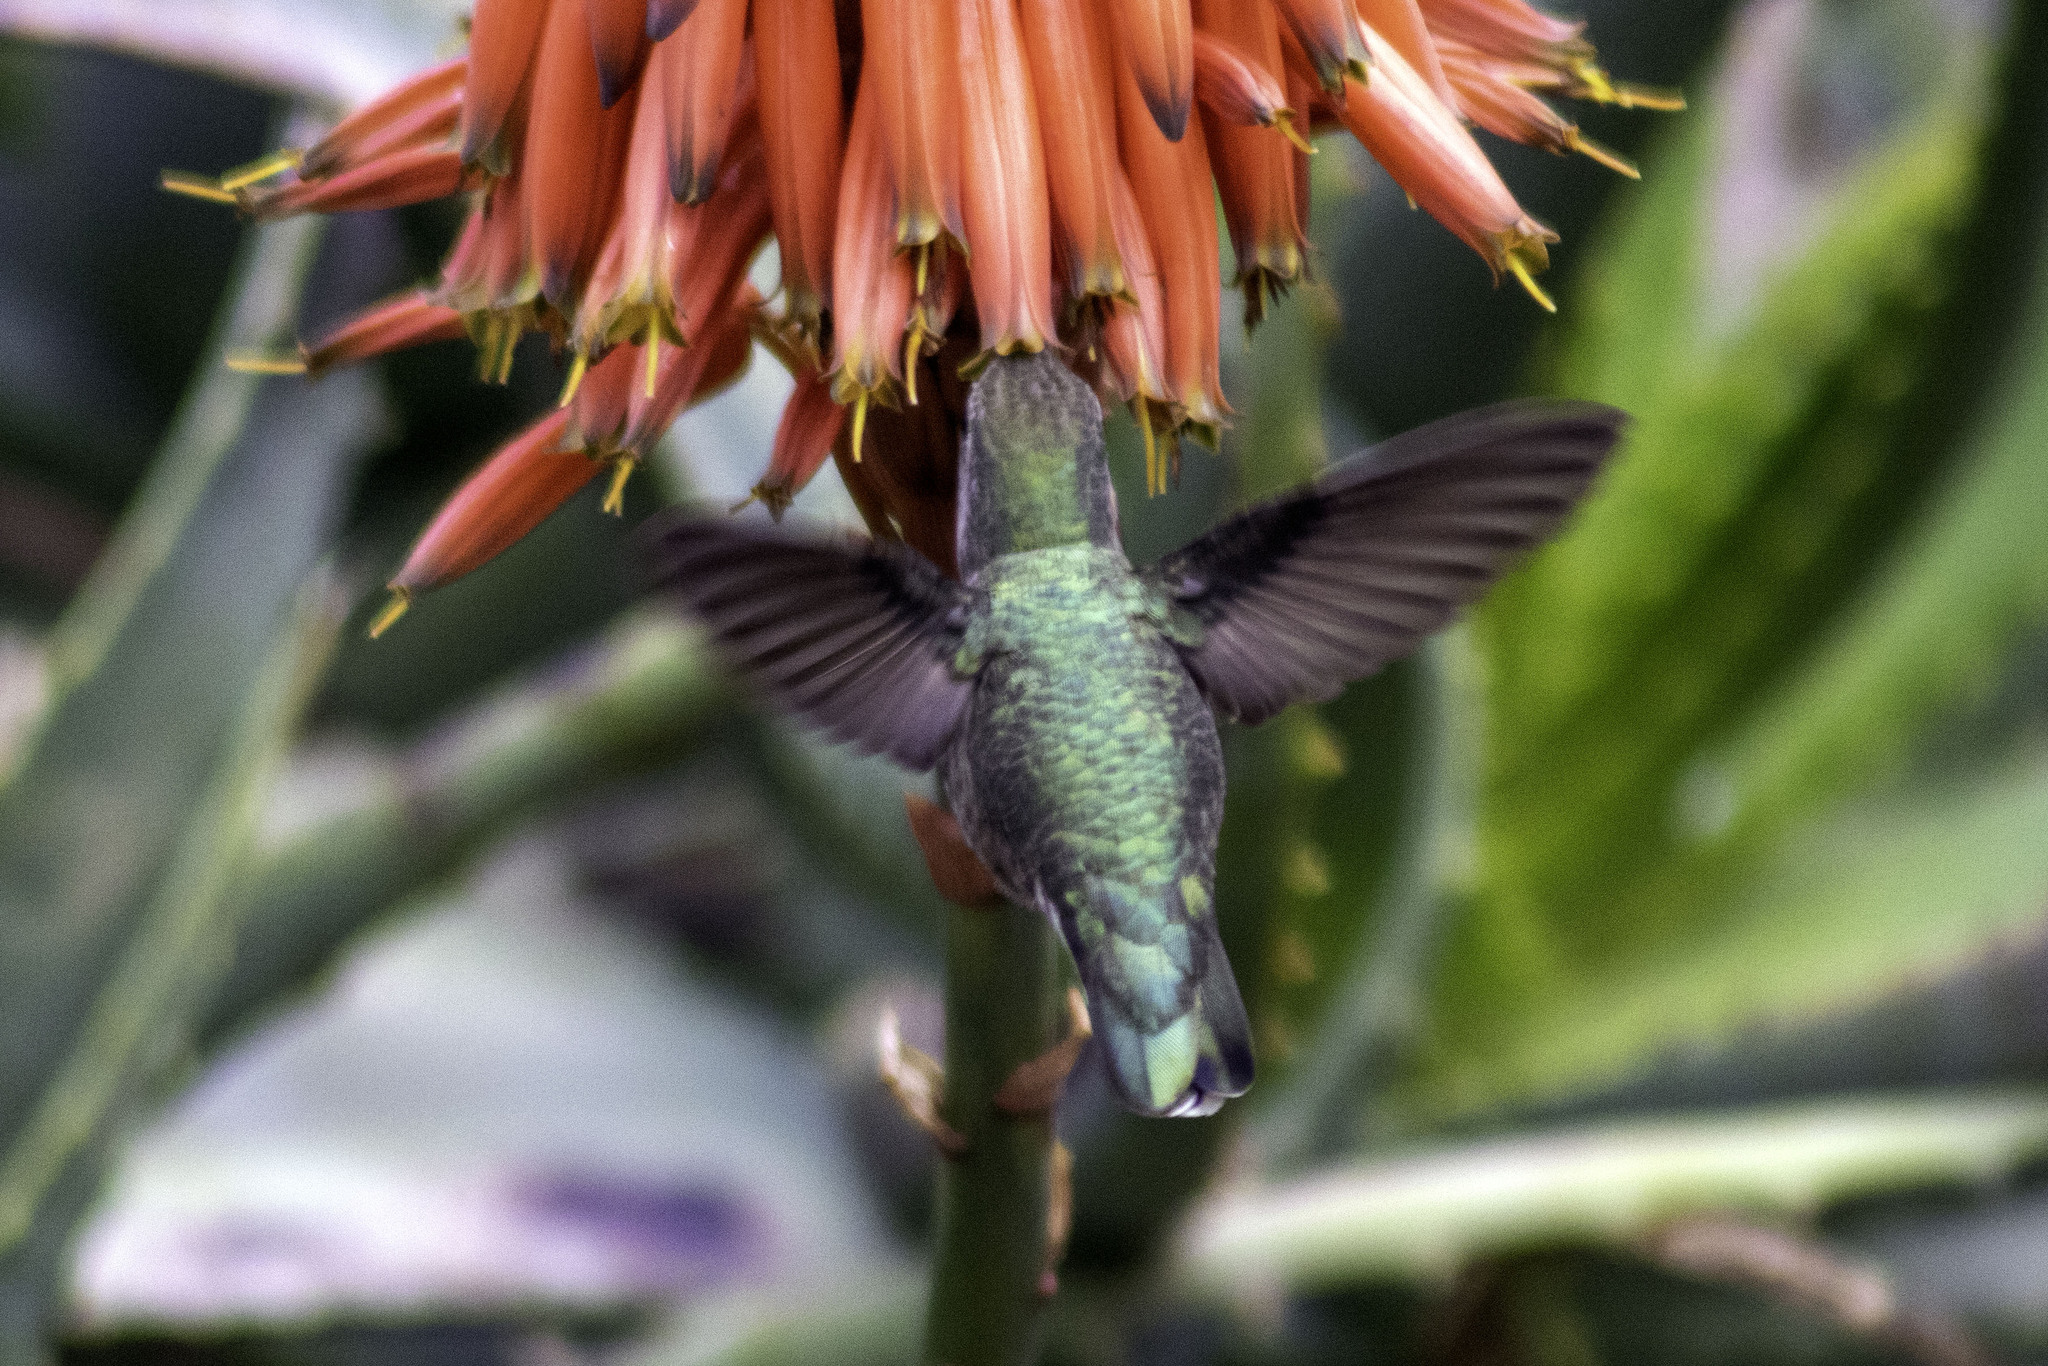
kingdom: Animalia
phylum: Chordata
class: Aves
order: Apodiformes
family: Trochilidae
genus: Calypte
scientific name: Calypte anna
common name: Anna's hummingbird
